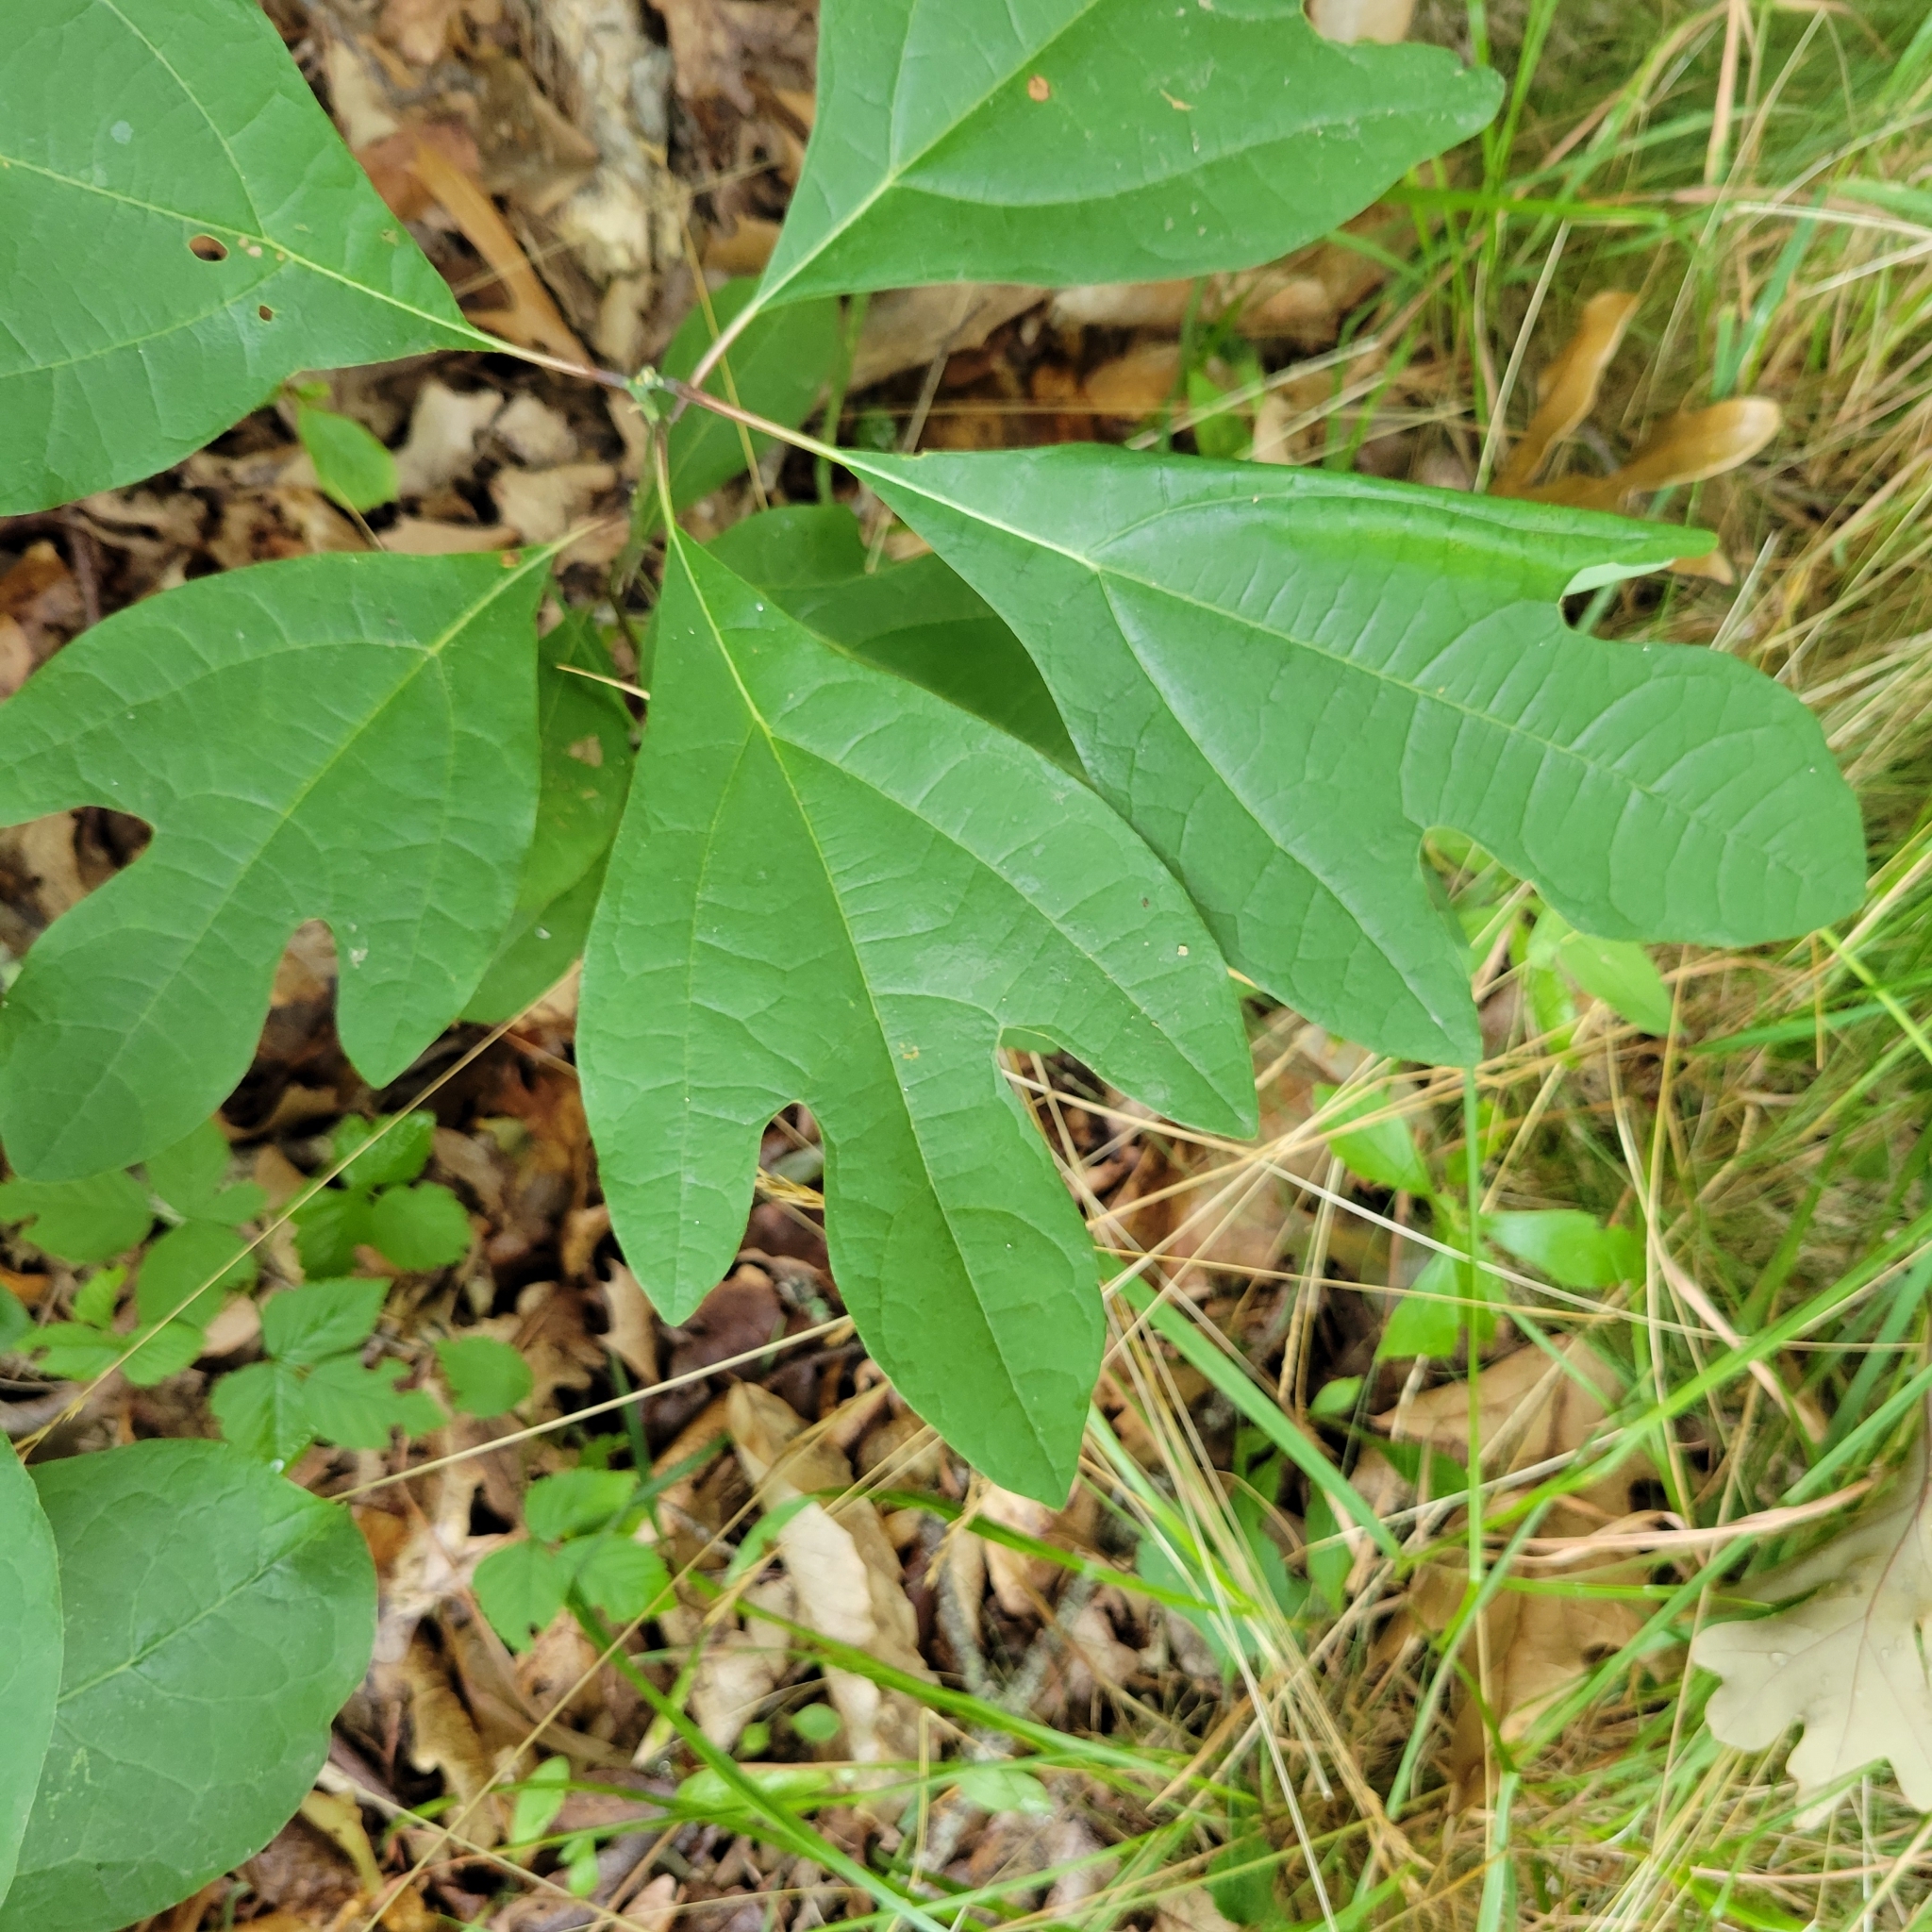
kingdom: Plantae
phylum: Tracheophyta
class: Magnoliopsida
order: Laurales
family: Lauraceae
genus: Sassafras
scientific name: Sassafras albidum
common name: Sassafras
